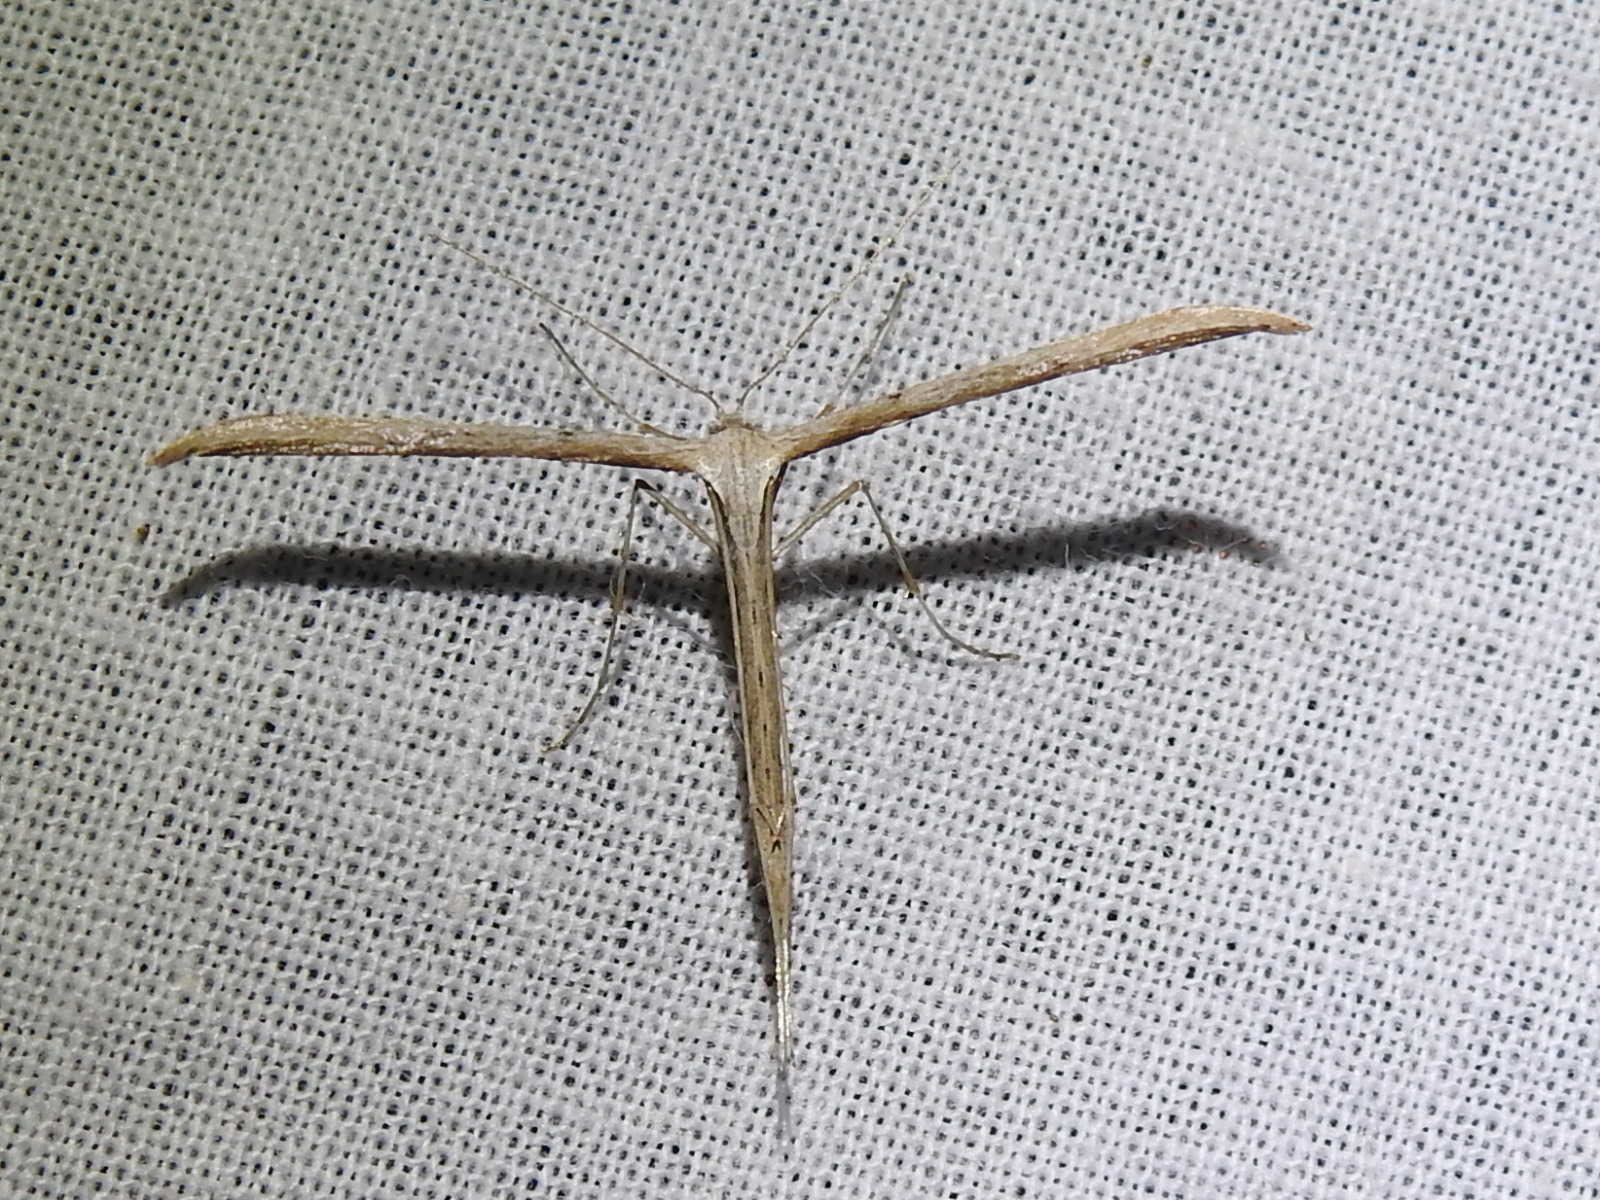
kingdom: Animalia
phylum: Arthropoda
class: Insecta
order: Lepidoptera
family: Pterophoridae
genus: Emmelina
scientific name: Emmelina monodactyla
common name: Common plume
